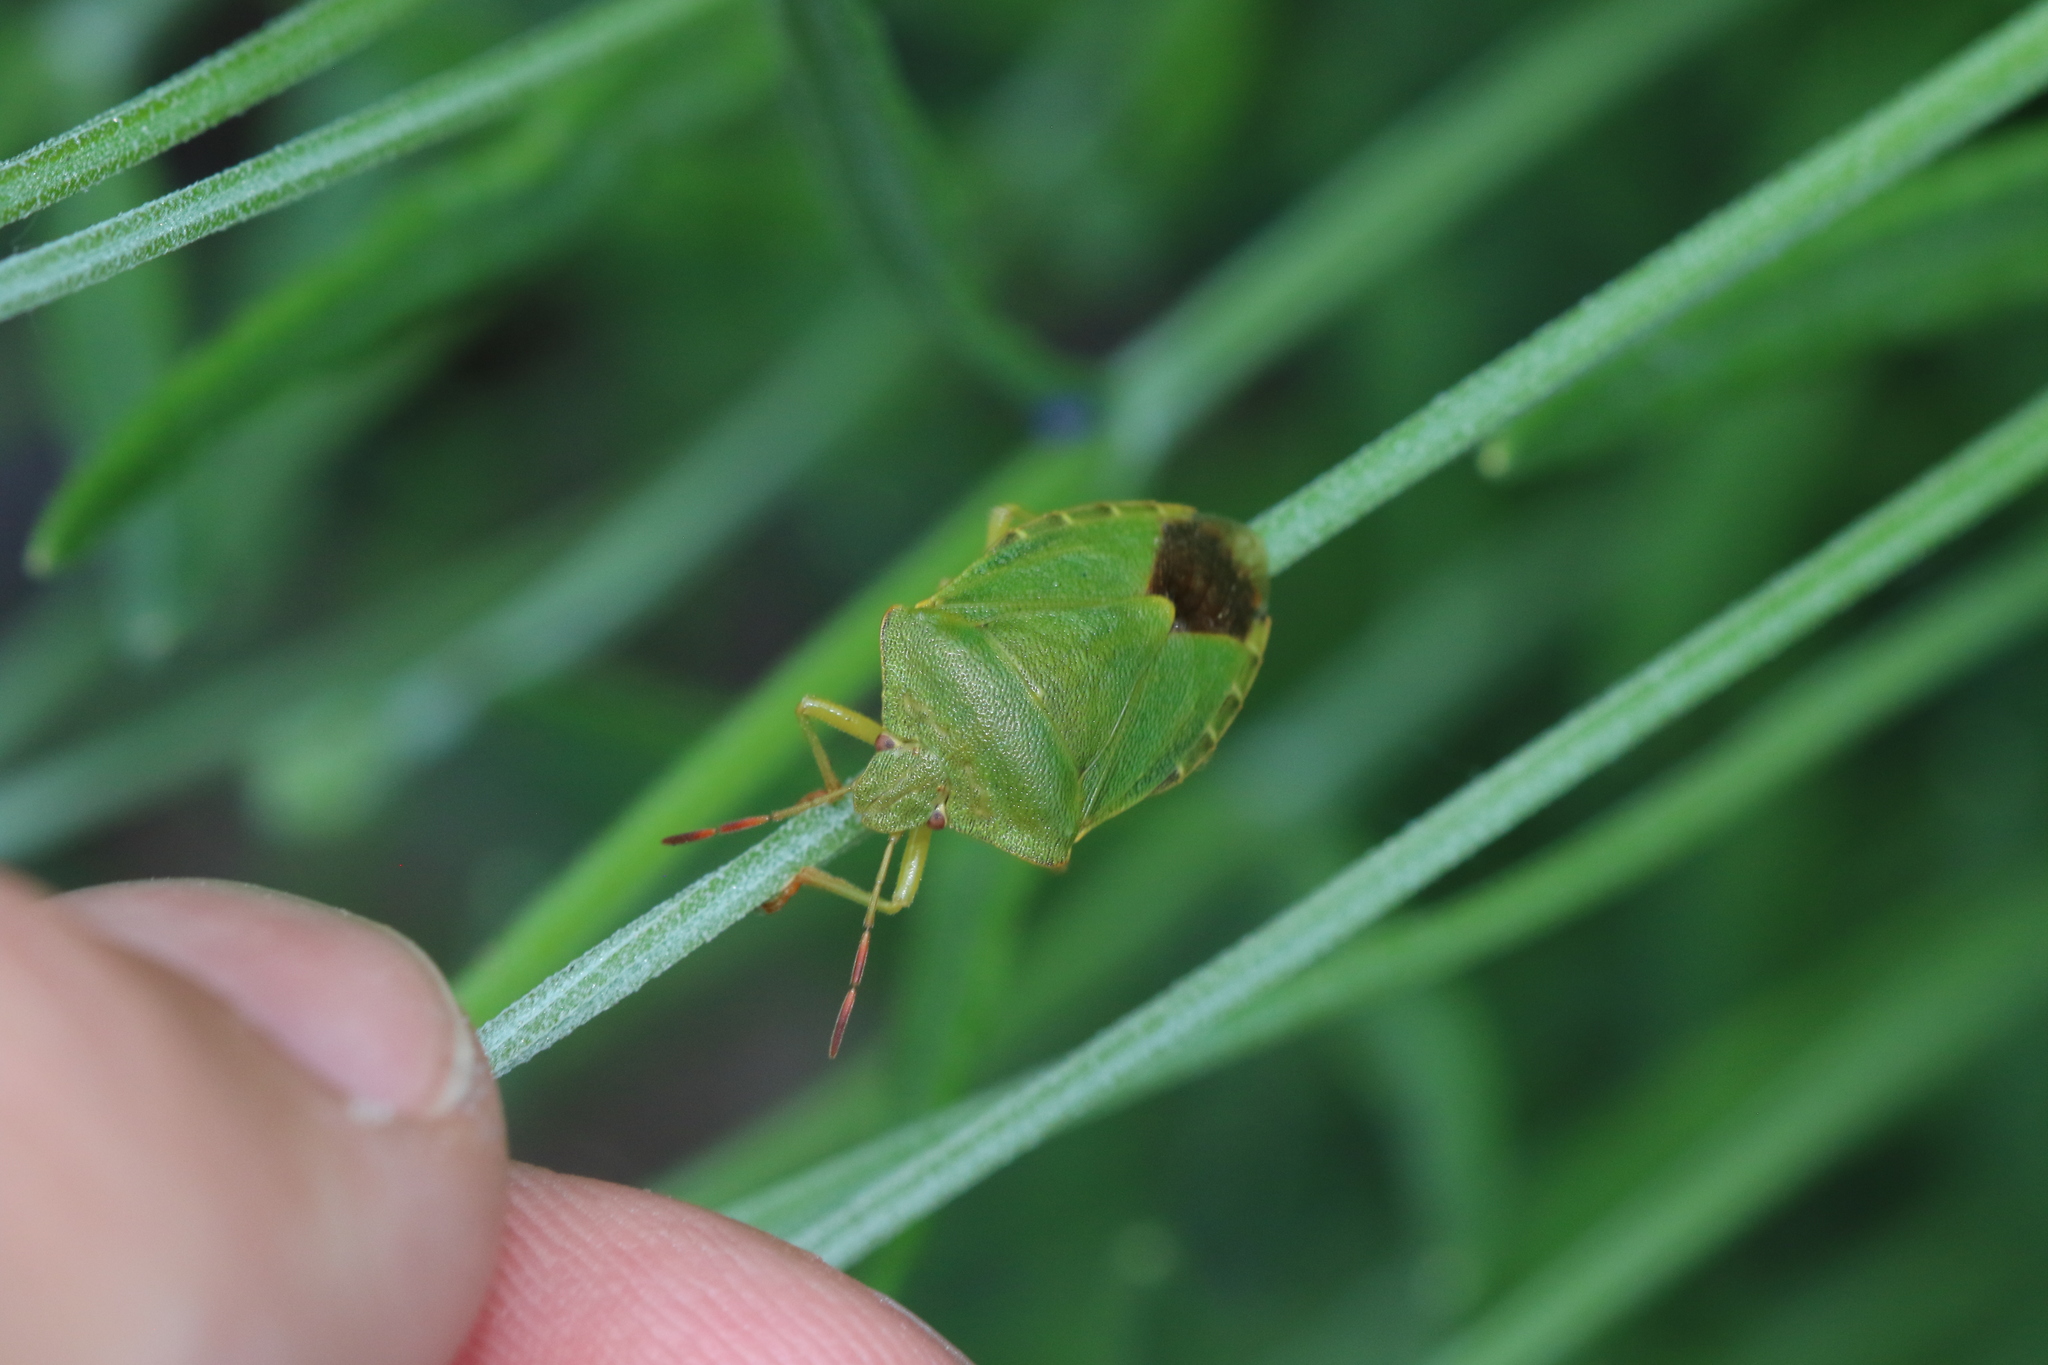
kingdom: Animalia
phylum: Arthropoda
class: Insecta
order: Hemiptera
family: Pentatomidae
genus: Palomena
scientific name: Palomena prasina
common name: Green shieldbug
